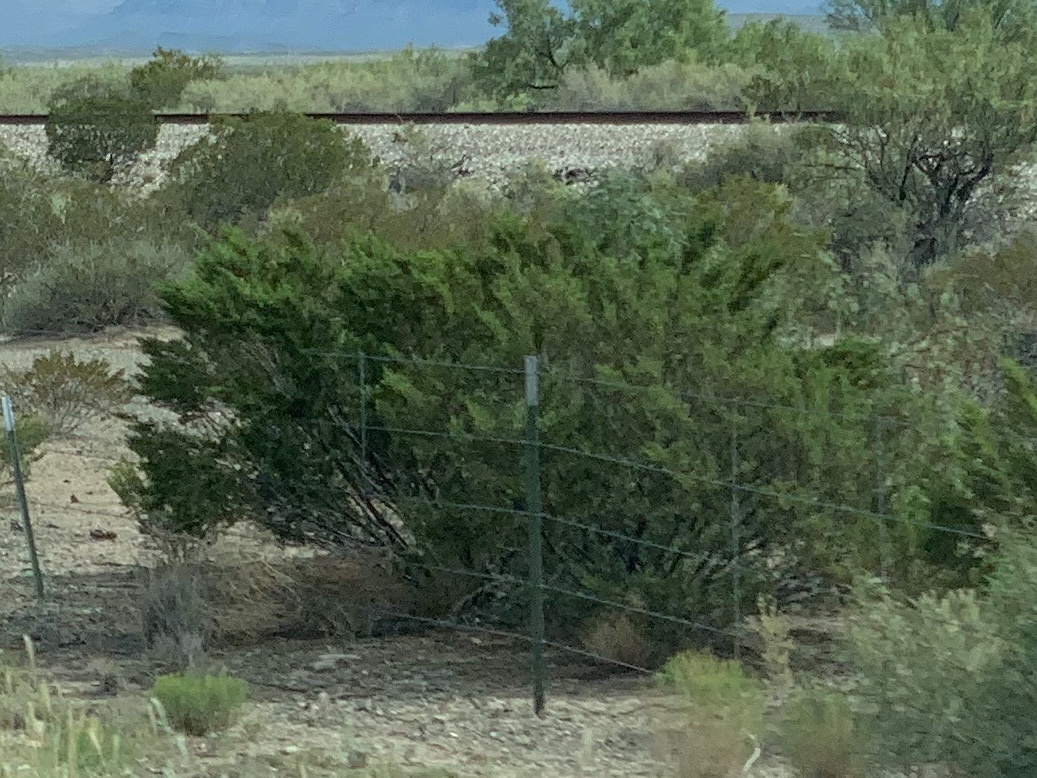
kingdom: Plantae
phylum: Tracheophyta
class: Magnoliopsida
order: Zygophyllales
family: Zygophyllaceae
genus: Larrea
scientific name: Larrea tridentata
